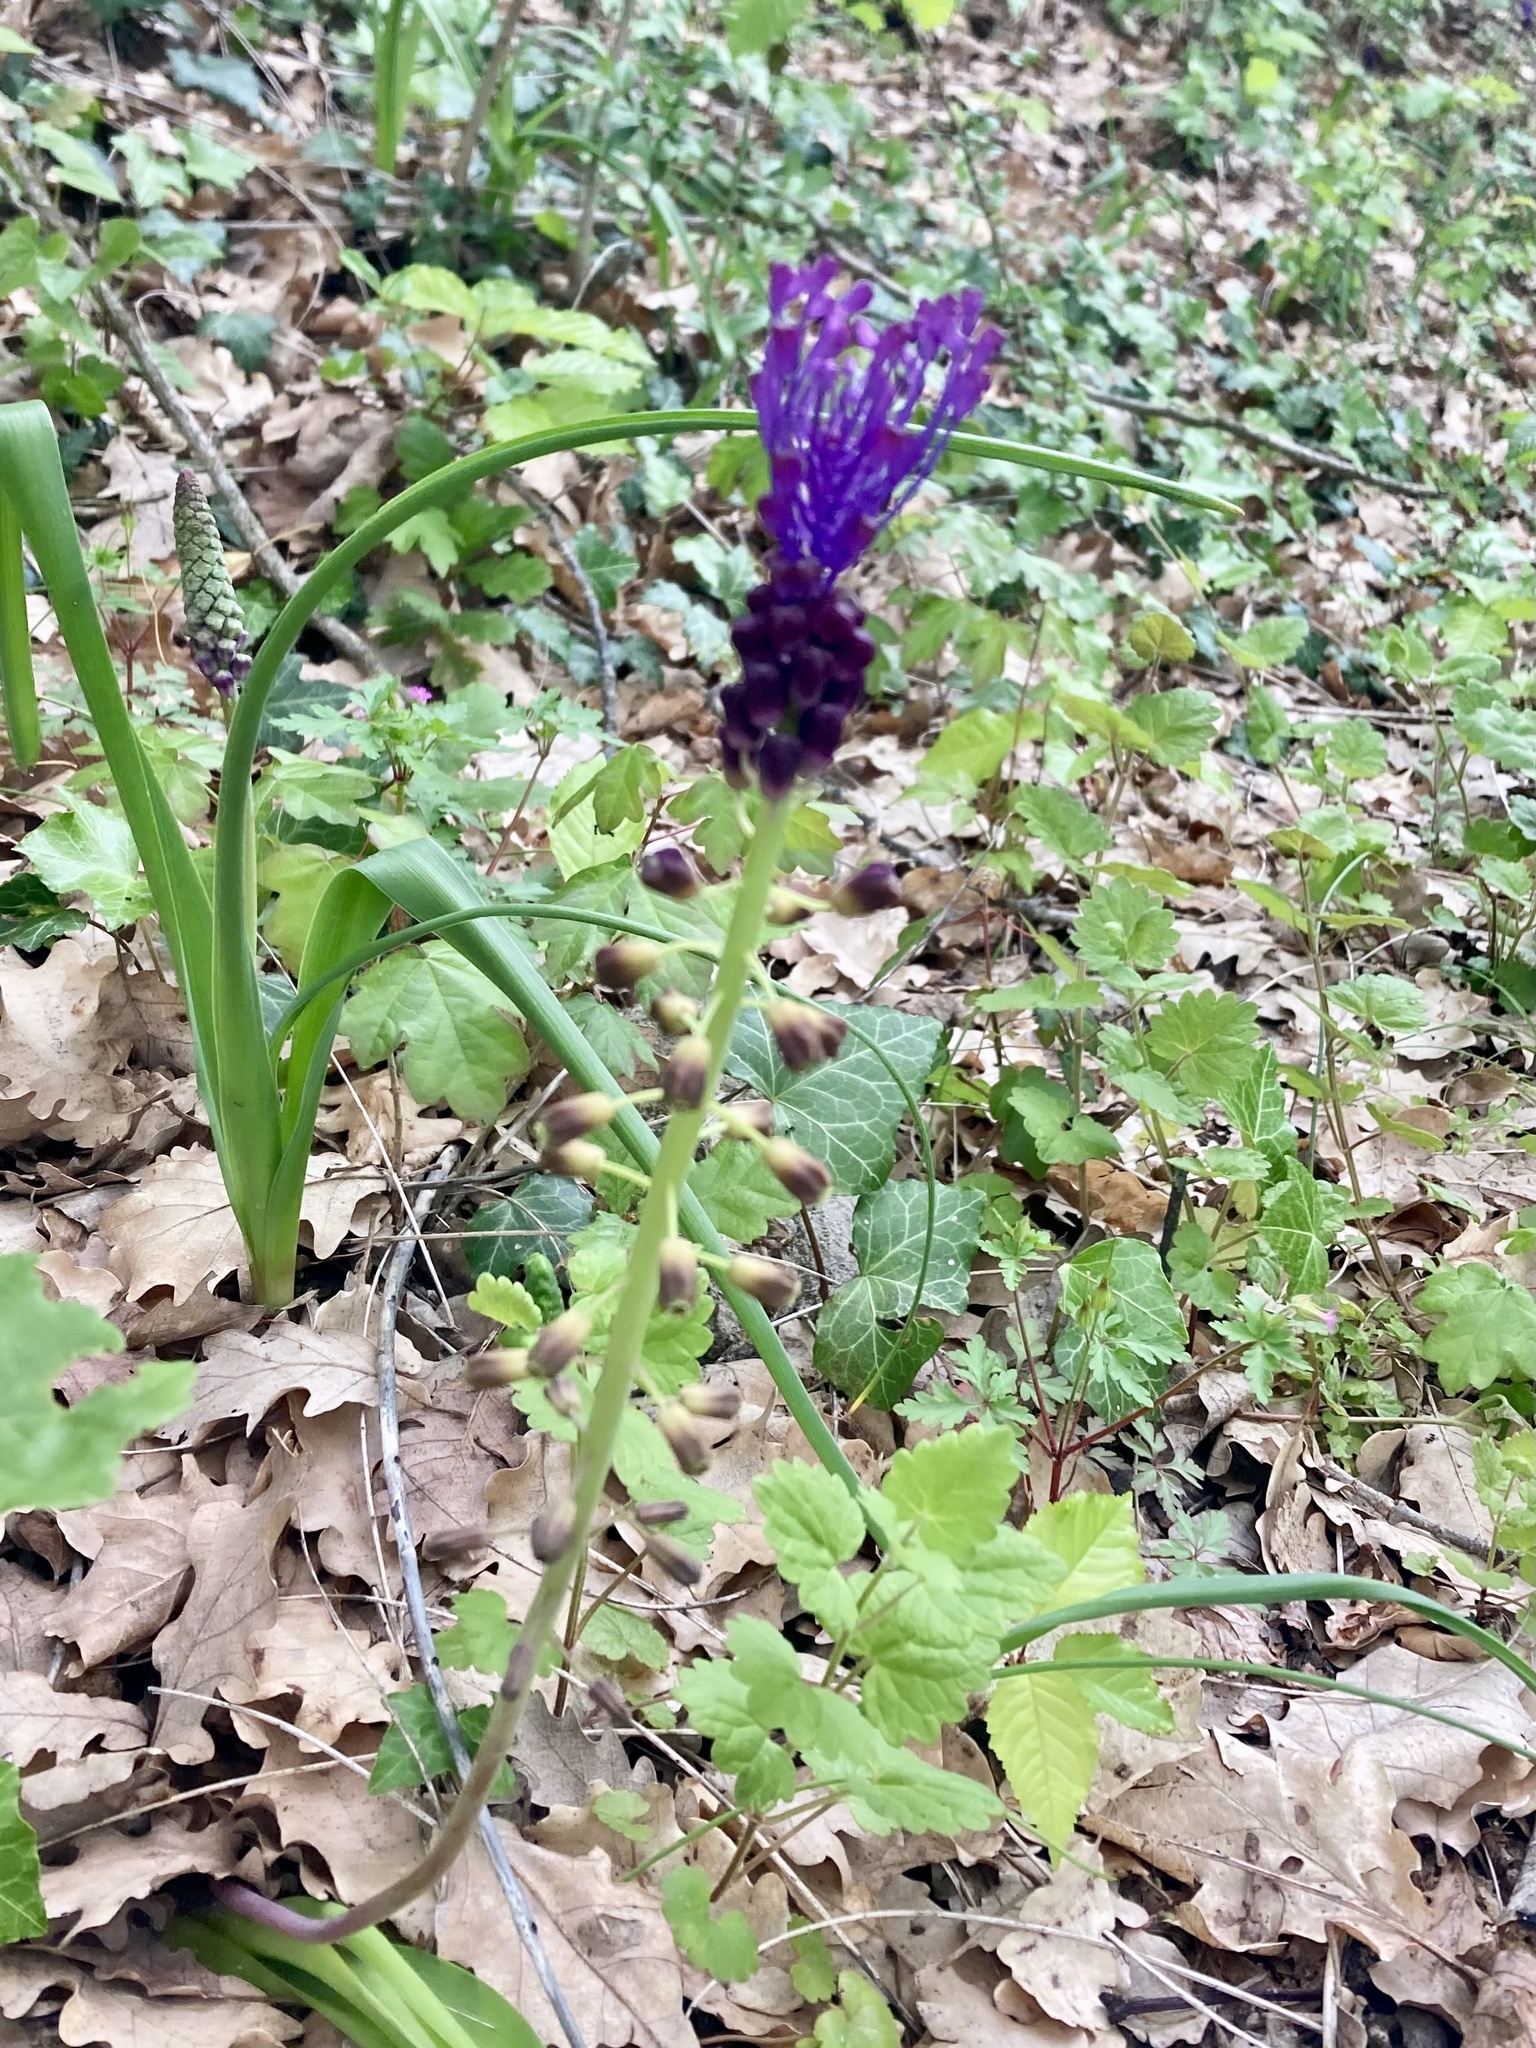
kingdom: Plantae
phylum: Tracheophyta
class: Liliopsida
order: Asparagales
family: Asparagaceae
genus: Muscari
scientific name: Muscari comosum
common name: Tassel hyacinth
